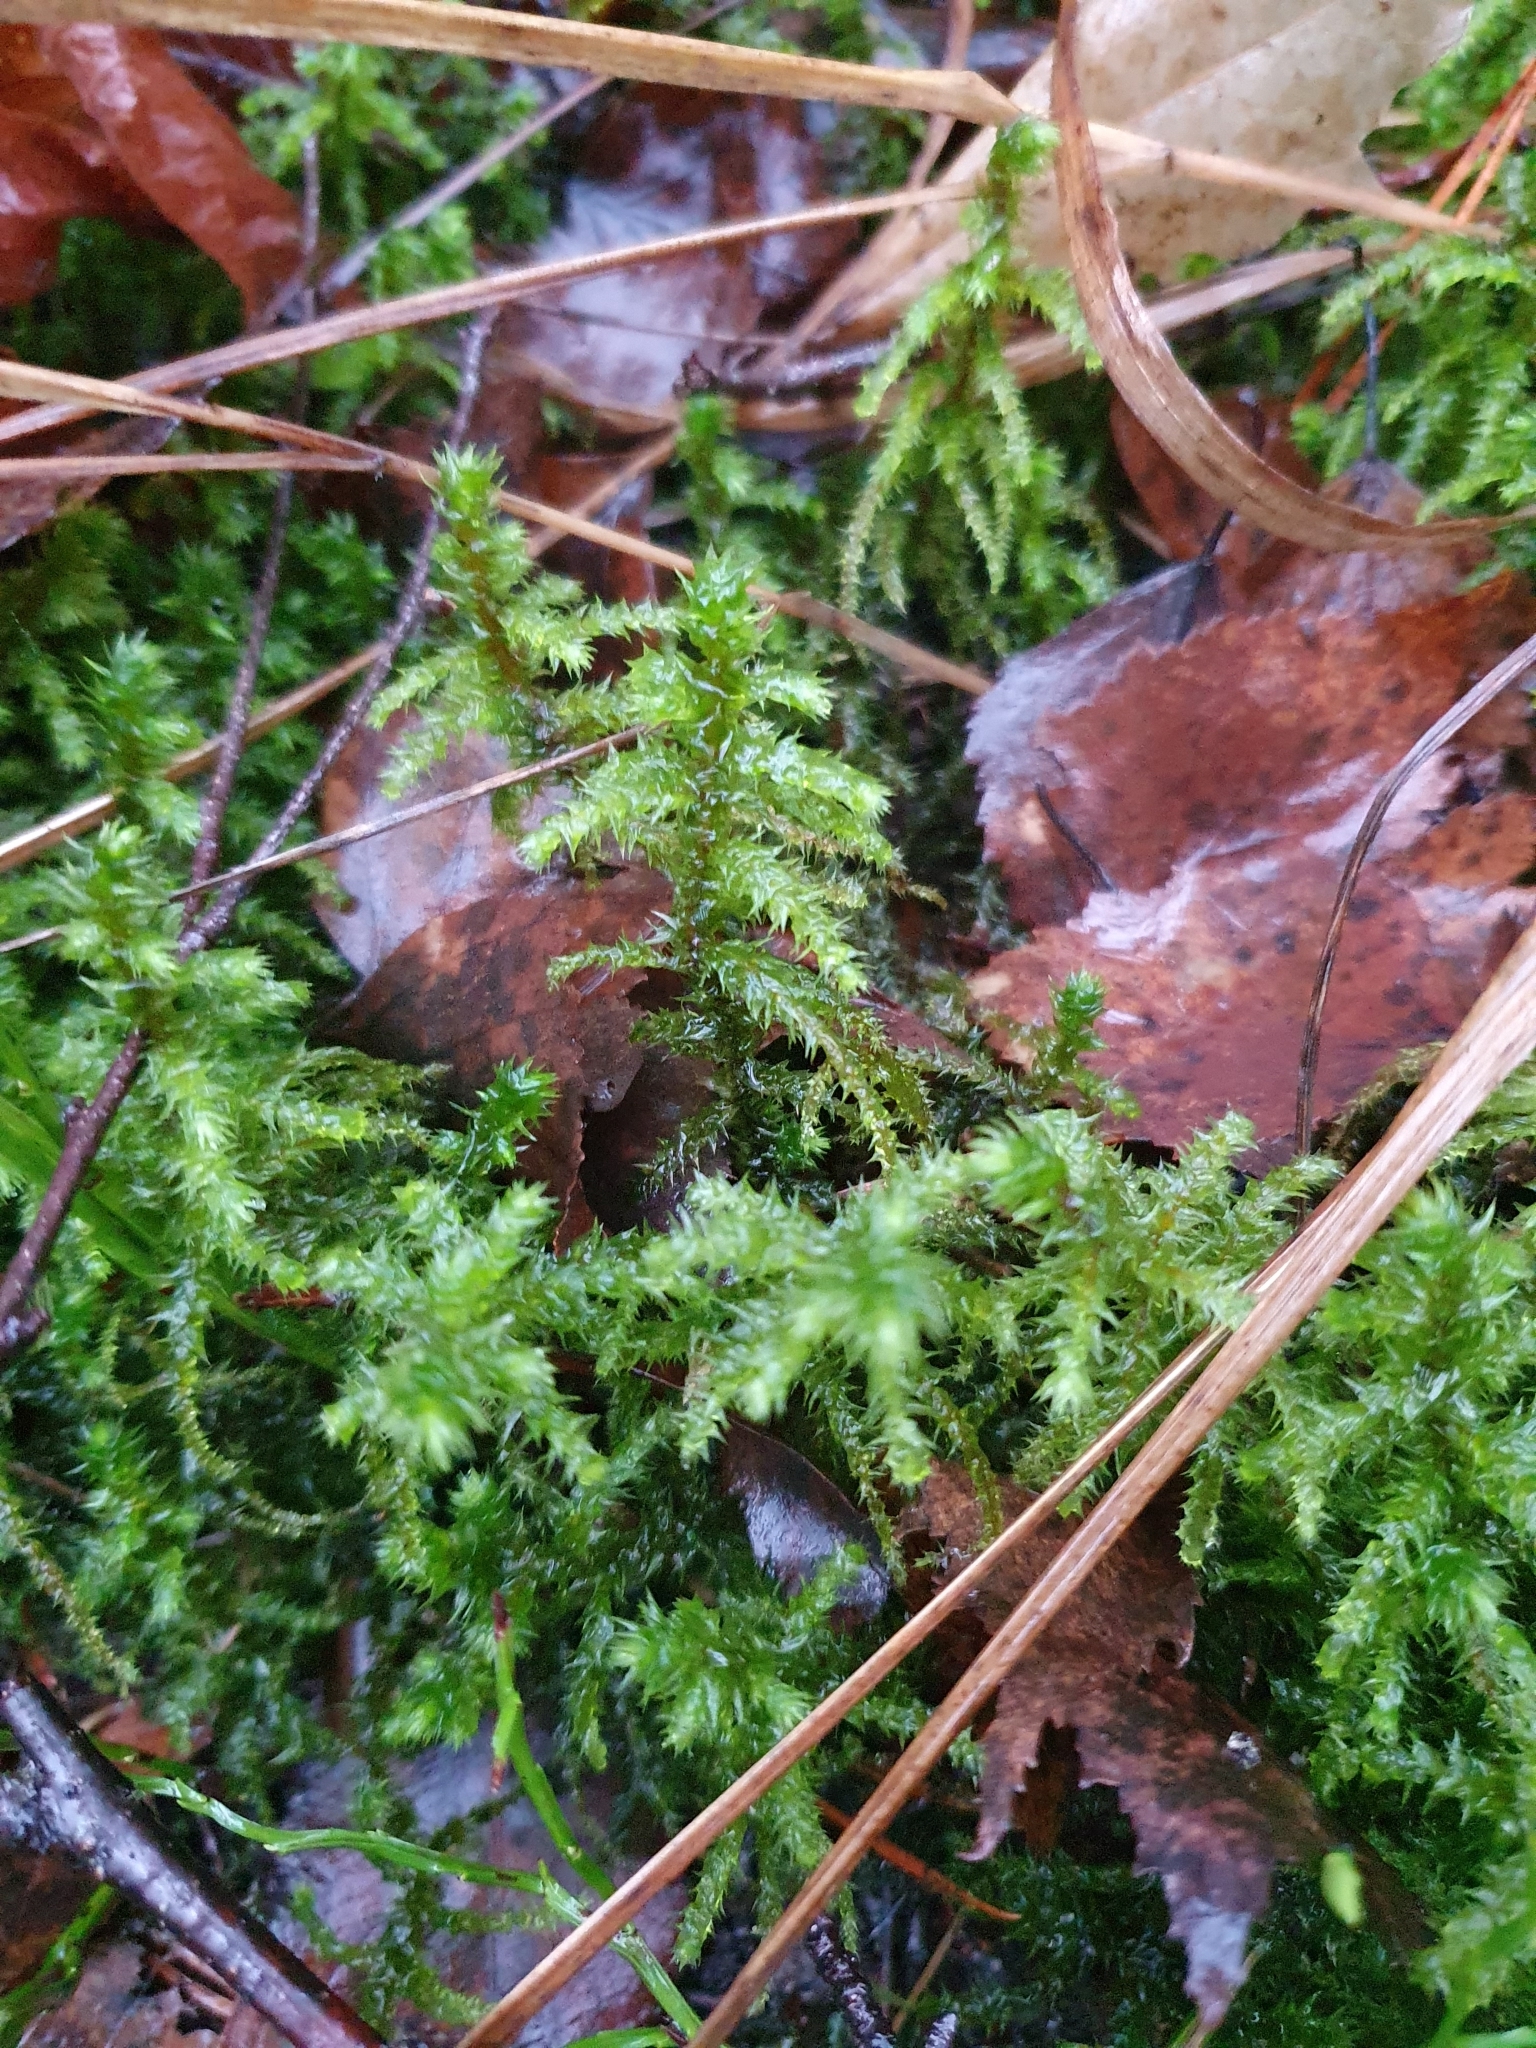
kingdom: Plantae
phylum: Bryophyta
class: Bryopsida
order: Hypnales
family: Hylocomiaceae
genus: Hylocomiadelphus
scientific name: Hylocomiadelphus triquetrus
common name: Rough goose neck moss
